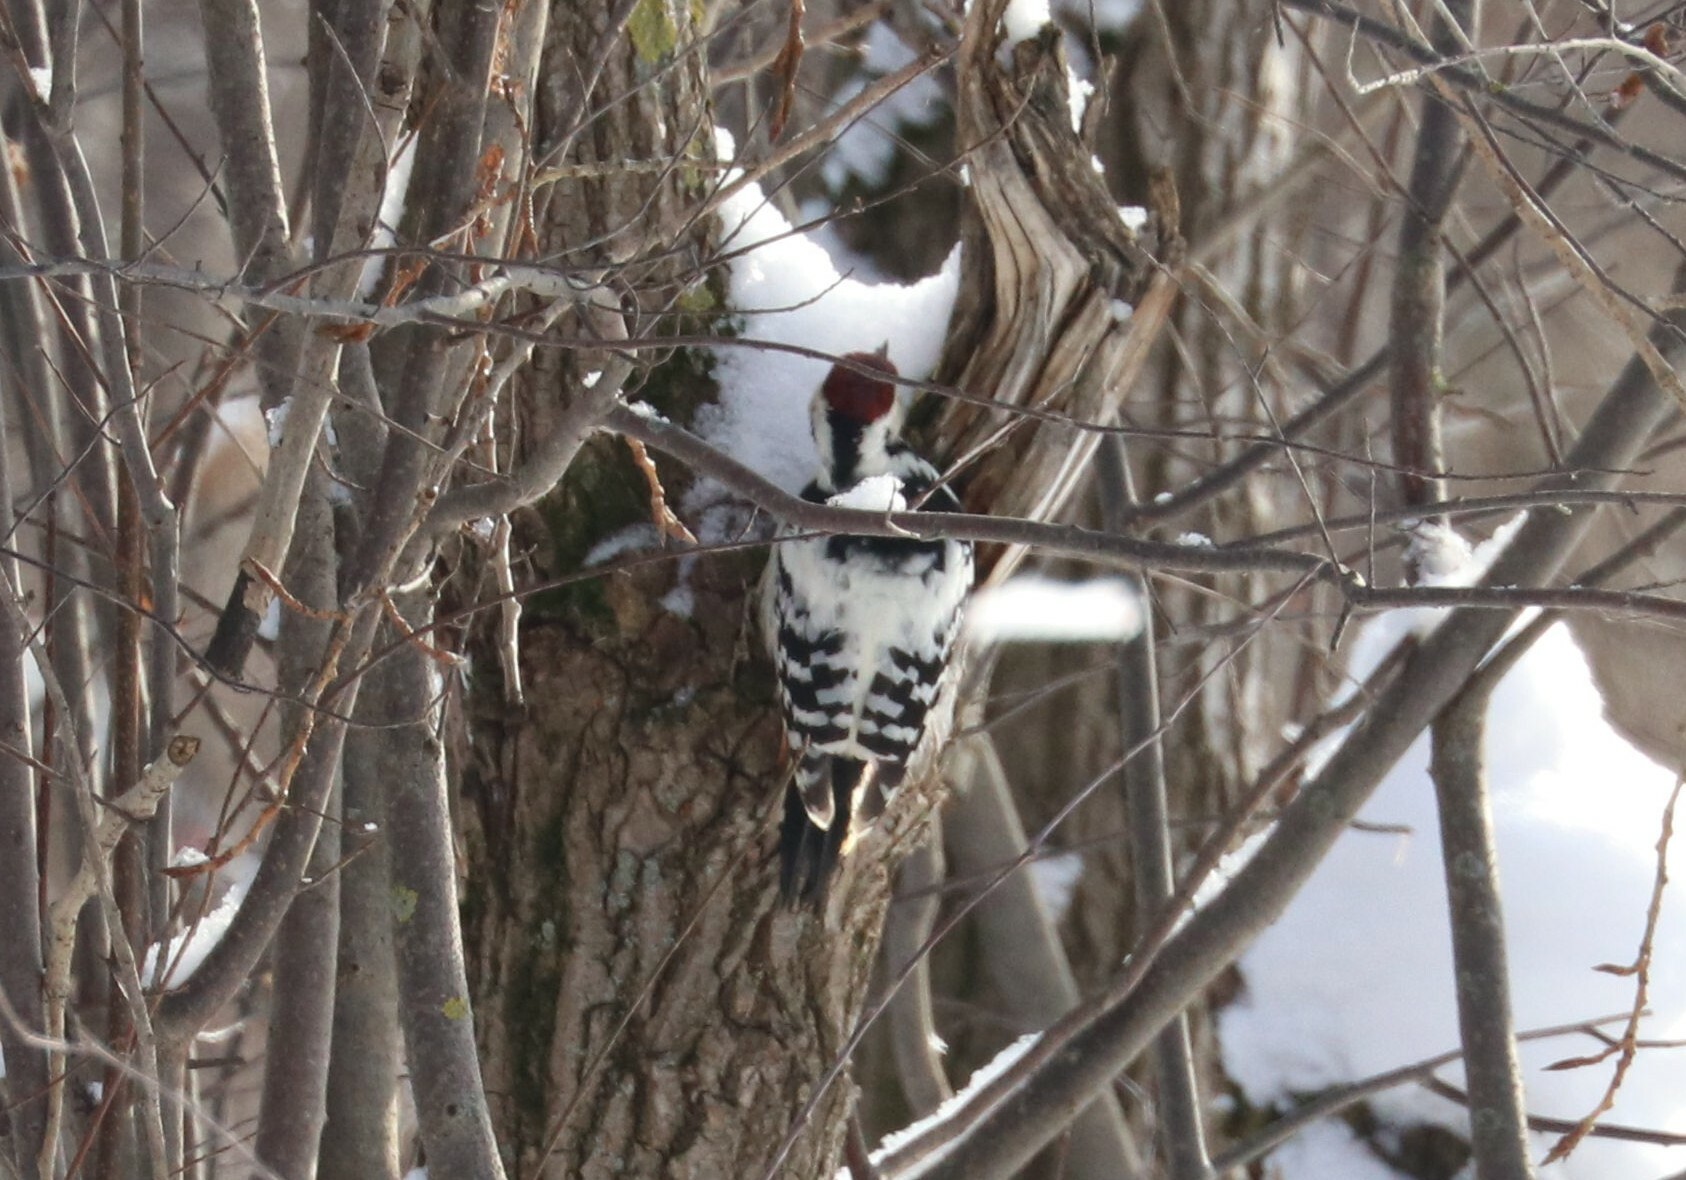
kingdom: Animalia
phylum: Chordata
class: Aves
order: Piciformes
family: Picidae
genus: Dendrocopos
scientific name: Dendrocopos leucotos
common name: White-backed woodpecker
